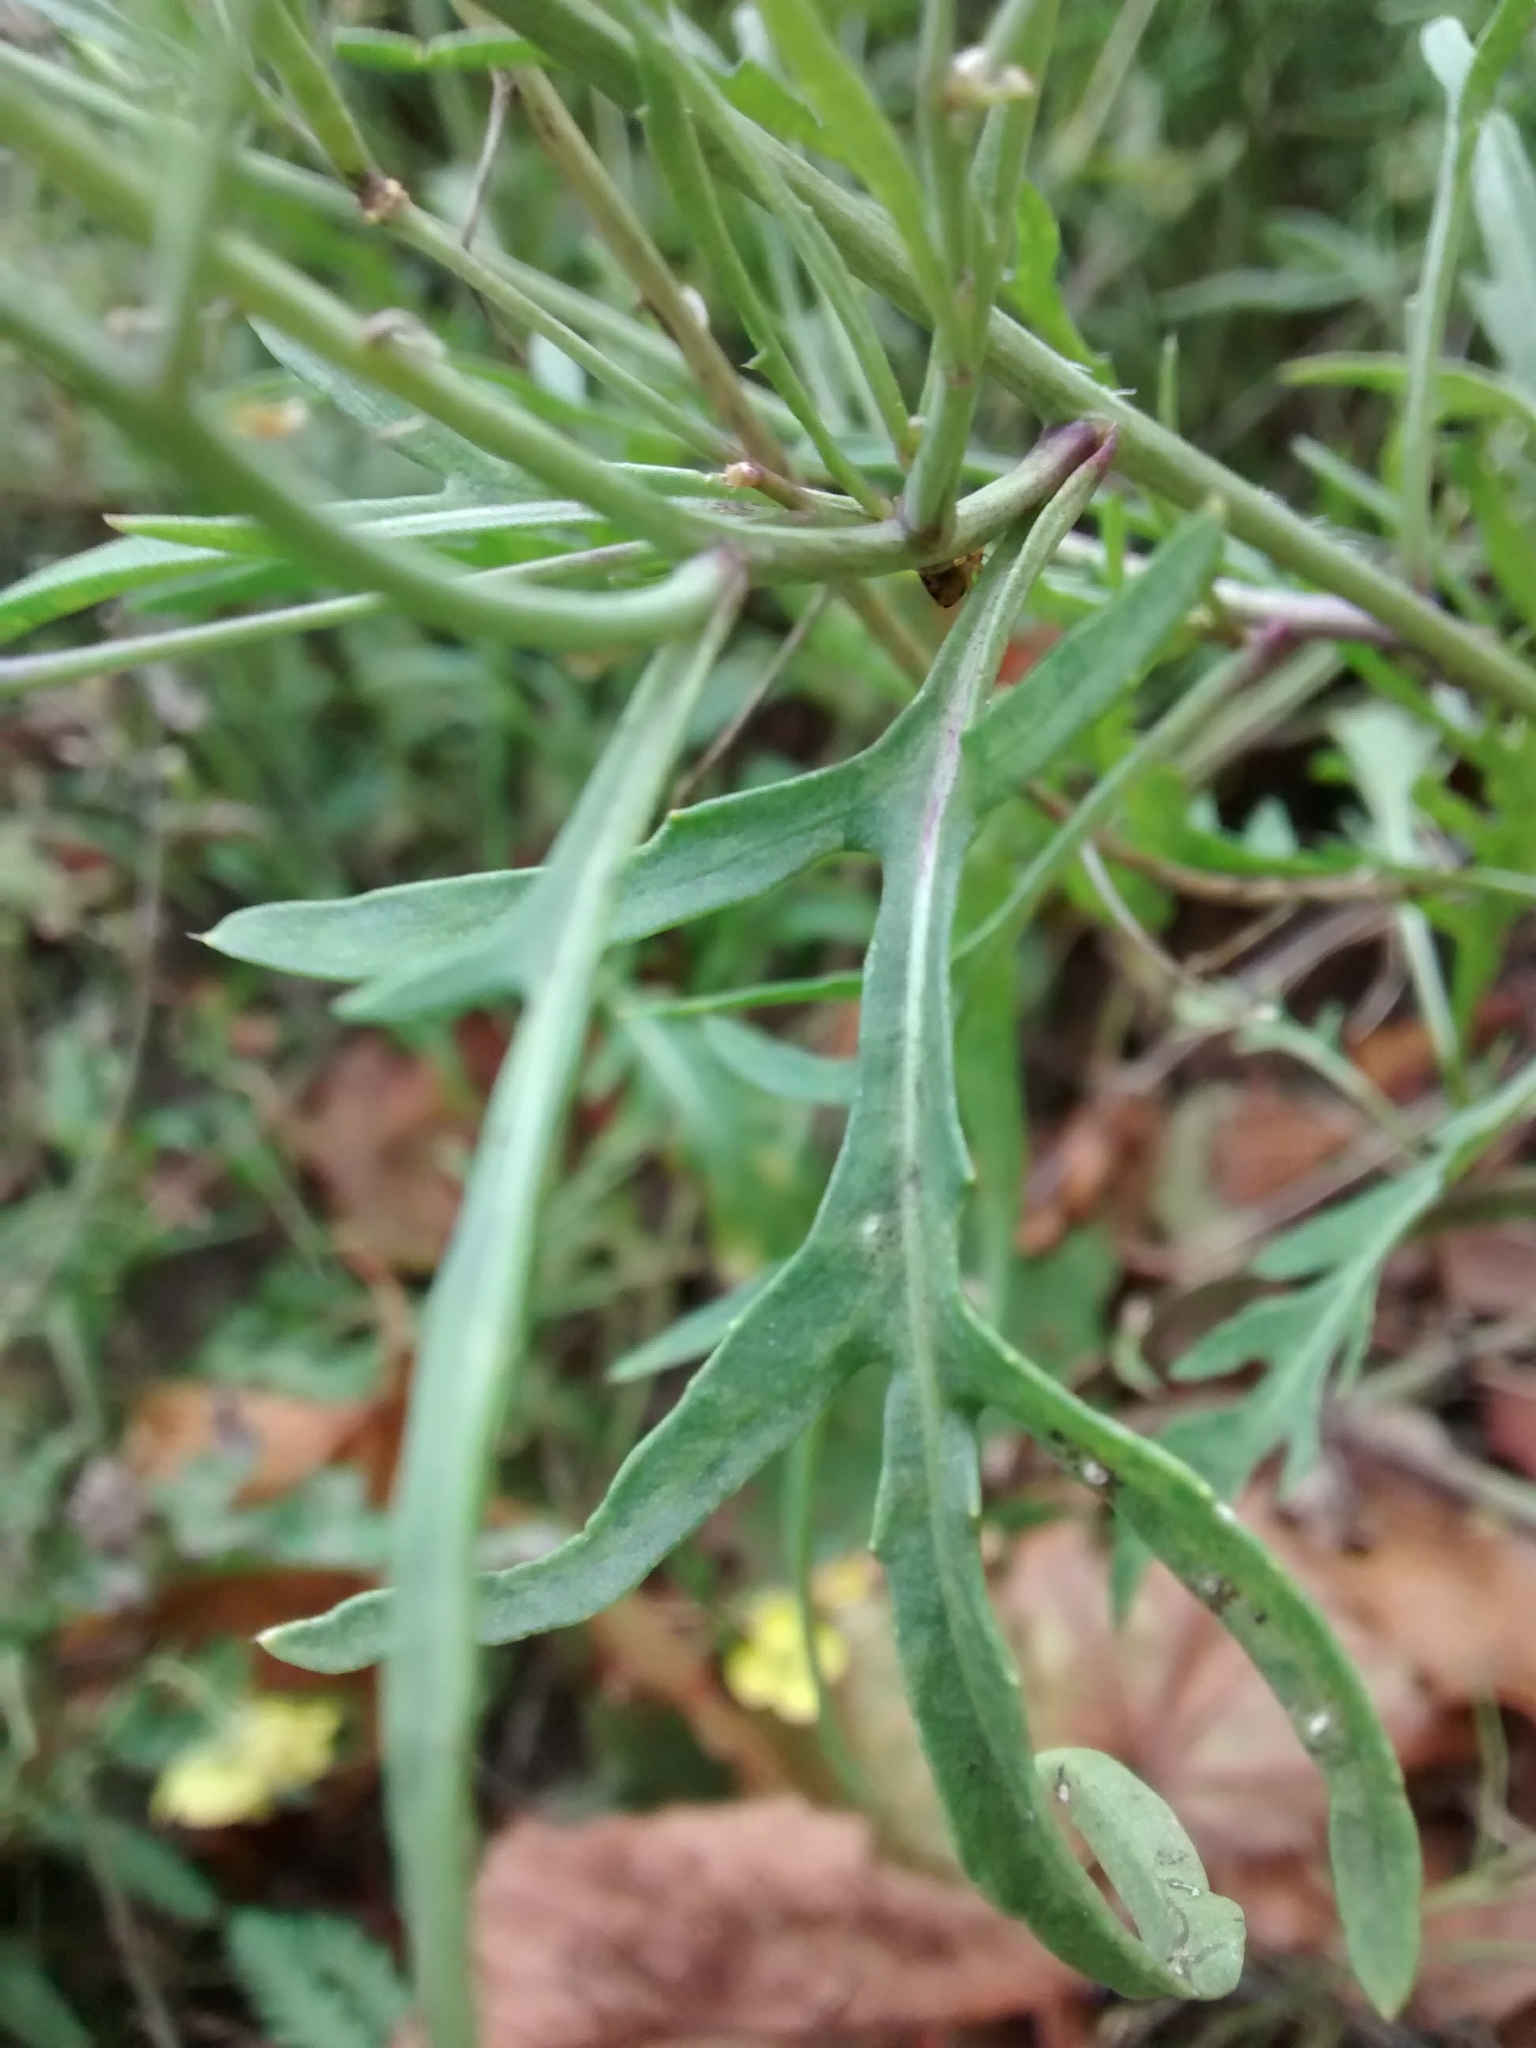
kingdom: Plantae
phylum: Tracheophyta
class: Magnoliopsida
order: Brassicales
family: Brassicaceae
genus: Diplotaxis
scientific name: Diplotaxis tenuifolia
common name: Perennial wall-rocket
